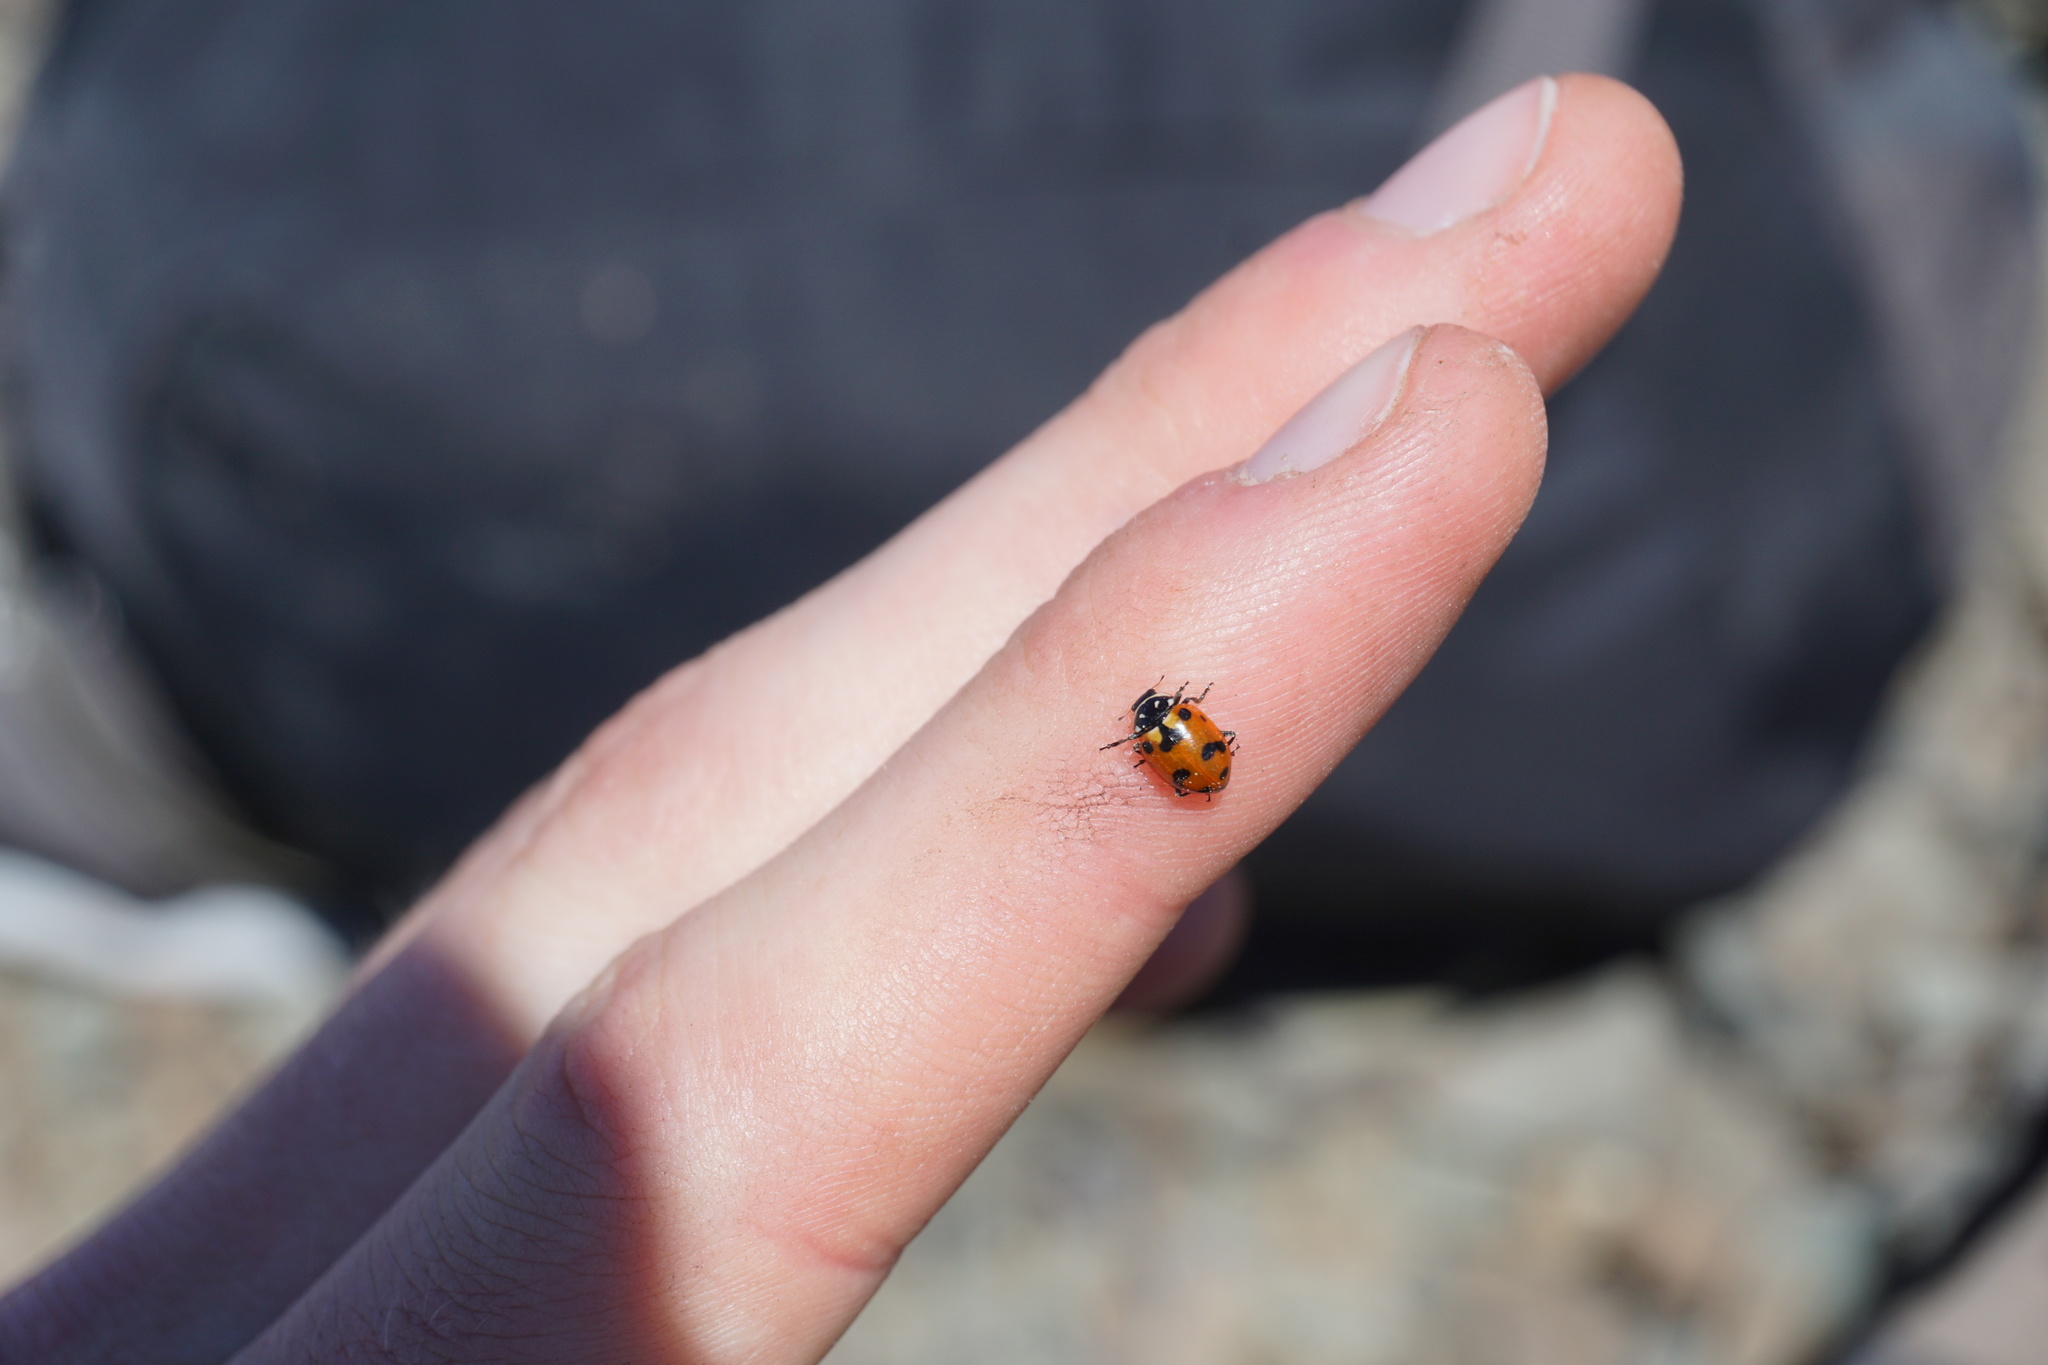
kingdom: Animalia
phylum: Arthropoda
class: Insecta
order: Coleoptera
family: Coccinellidae
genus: Hippodamia
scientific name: Hippodamia caseyi
